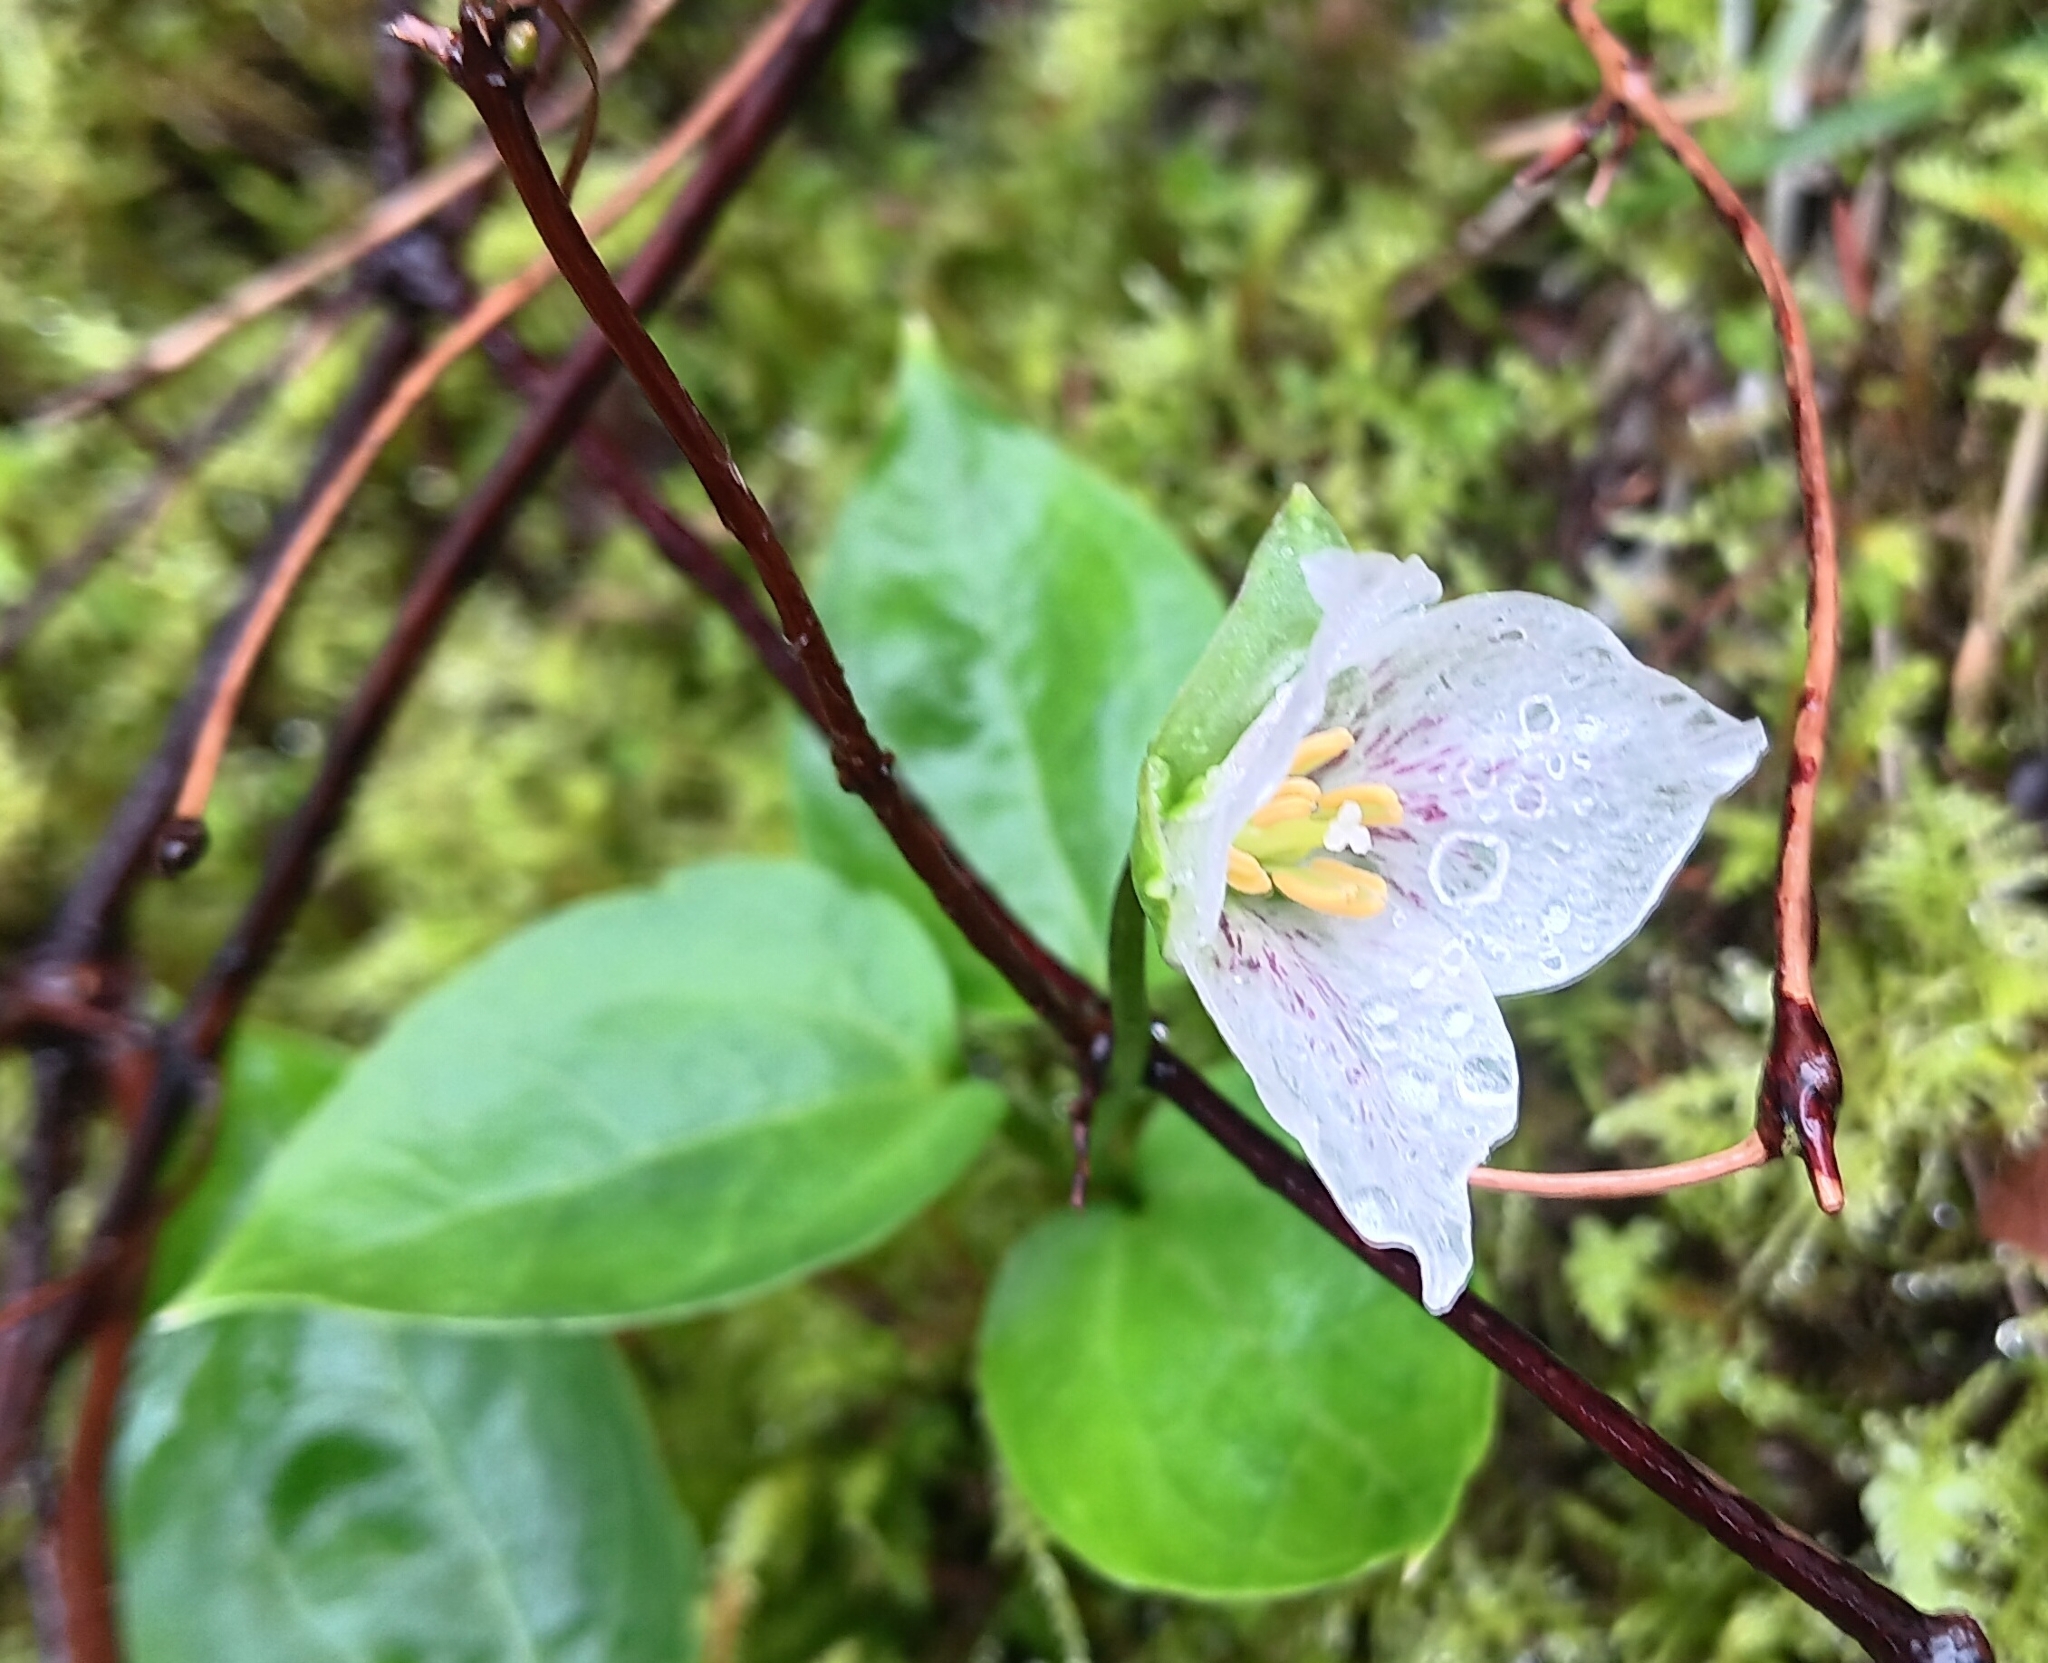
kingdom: Plantae
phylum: Tracheophyta
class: Liliopsida
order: Liliales
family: Melanthiaceae
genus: Pseudotrillium
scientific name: Pseudotrillium rivale
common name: Brook wakerobin
